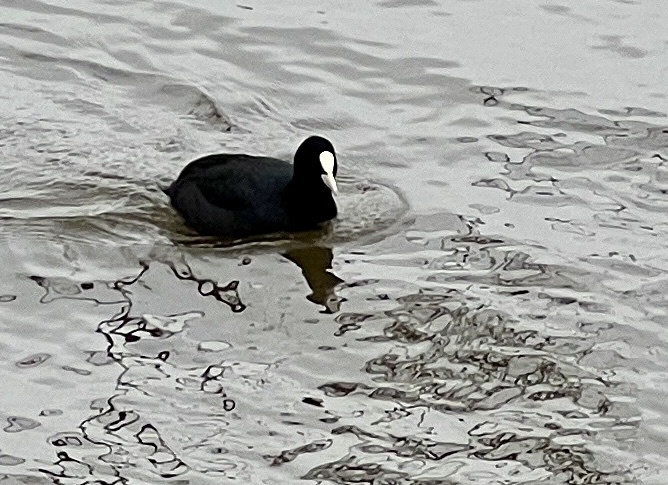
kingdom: Animalia
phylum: Chordata
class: Aves
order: Gruiformes
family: Rallidae
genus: Fulica
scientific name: Fulica atra
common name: Eurasian coot
